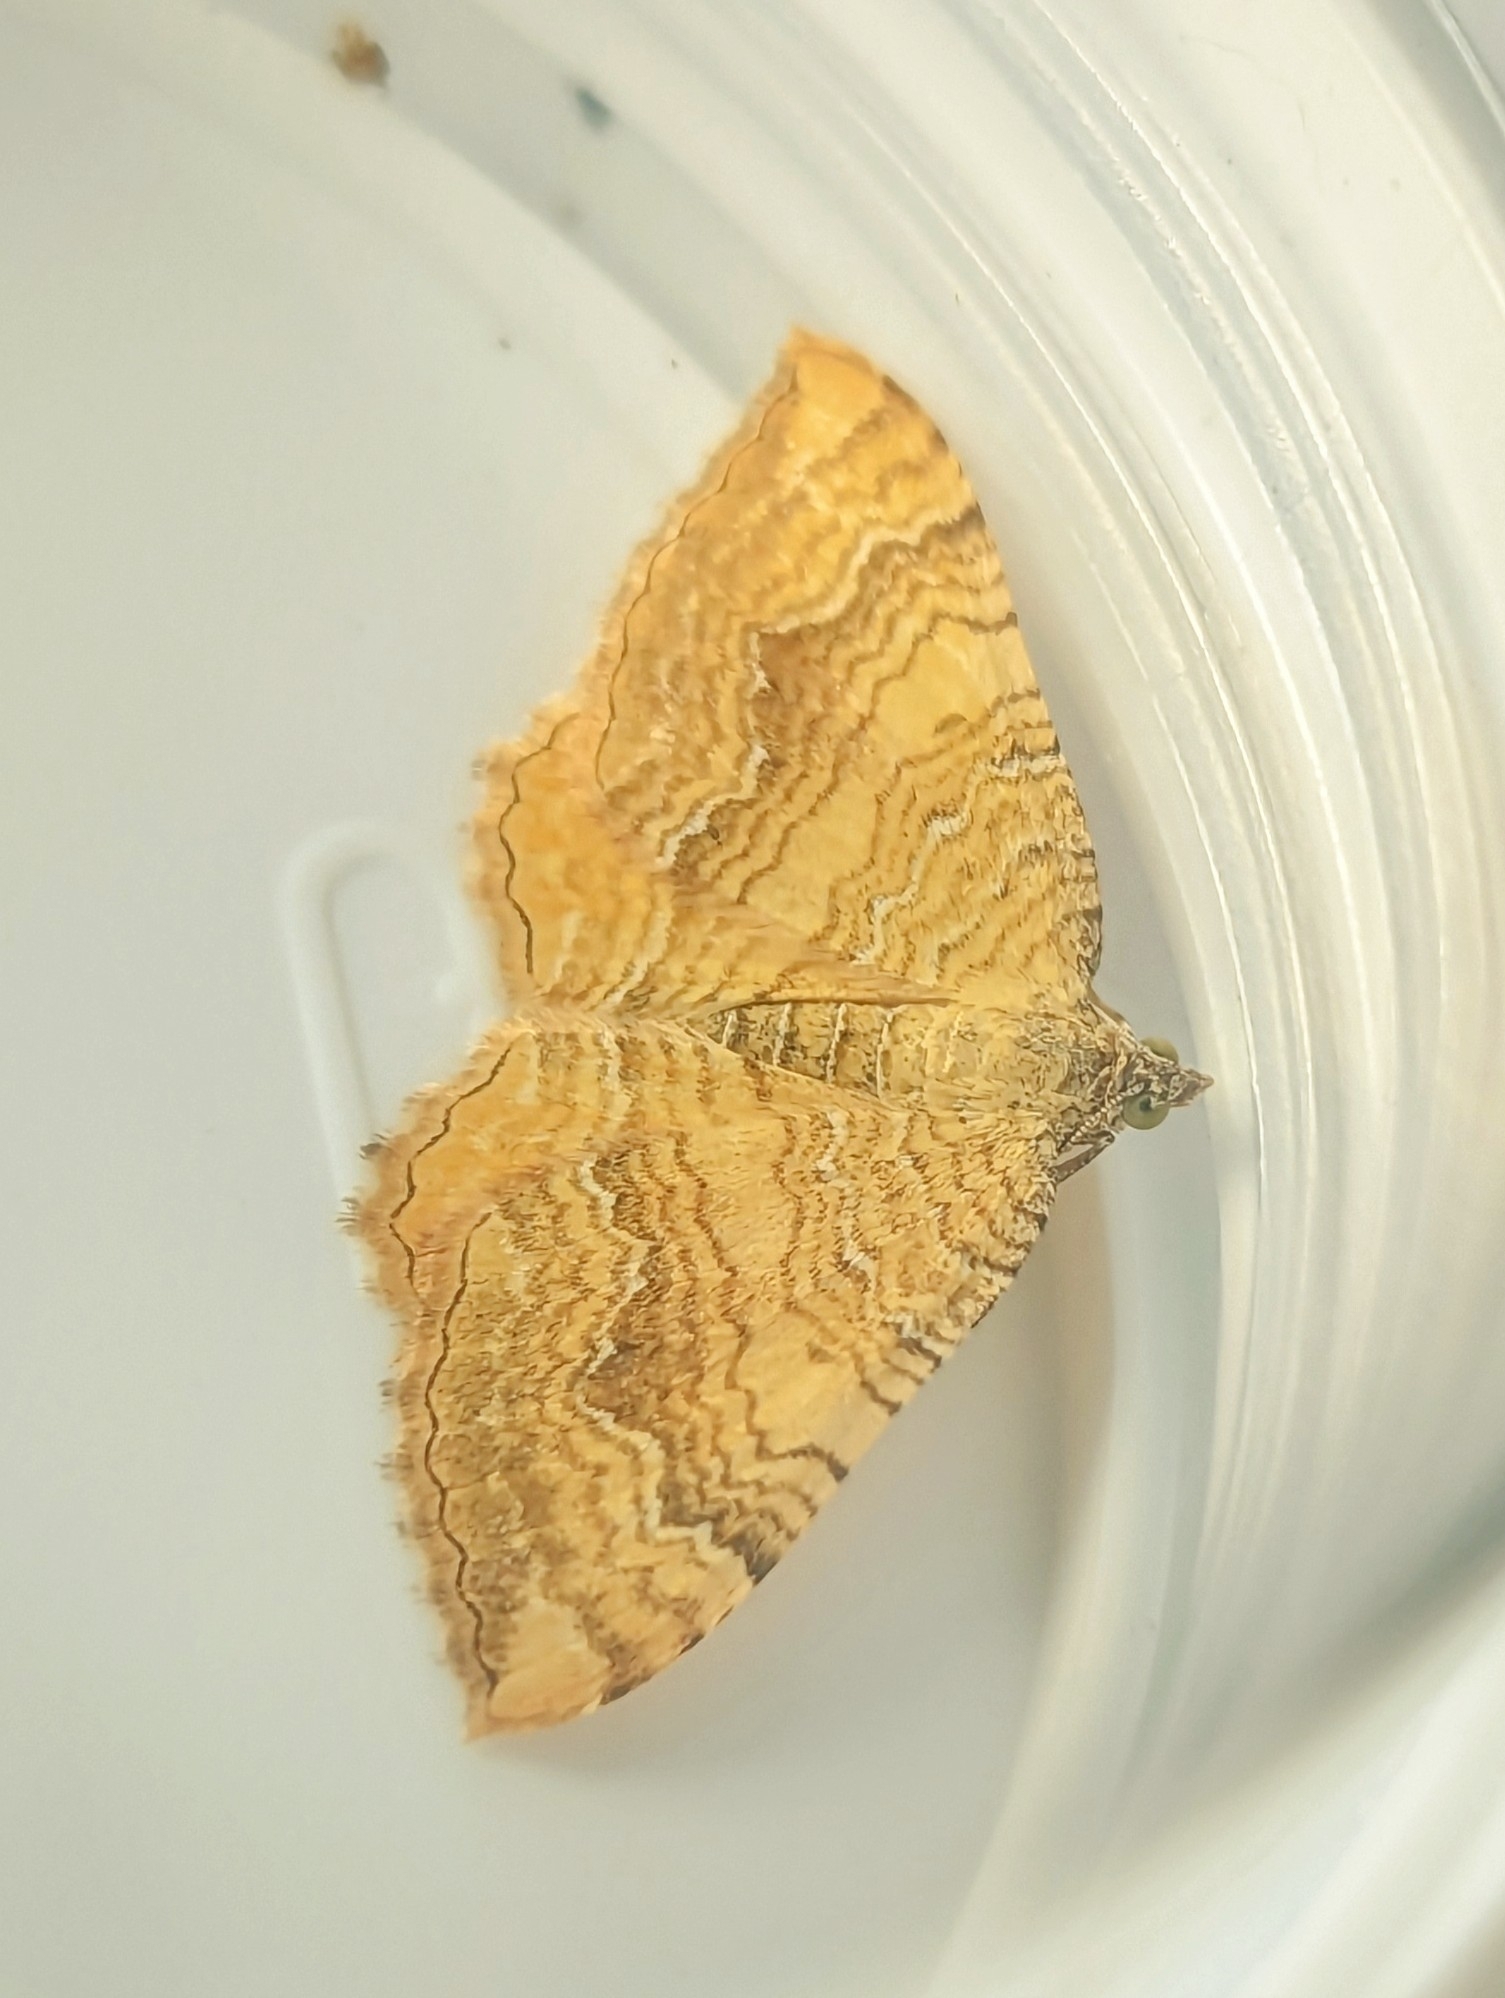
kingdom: Animalia
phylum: Arthropoda
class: Insecta
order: Lepidoptera
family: Geometridae
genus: Camptogramma
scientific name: Camptogramma bilineata
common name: Yellow shell
